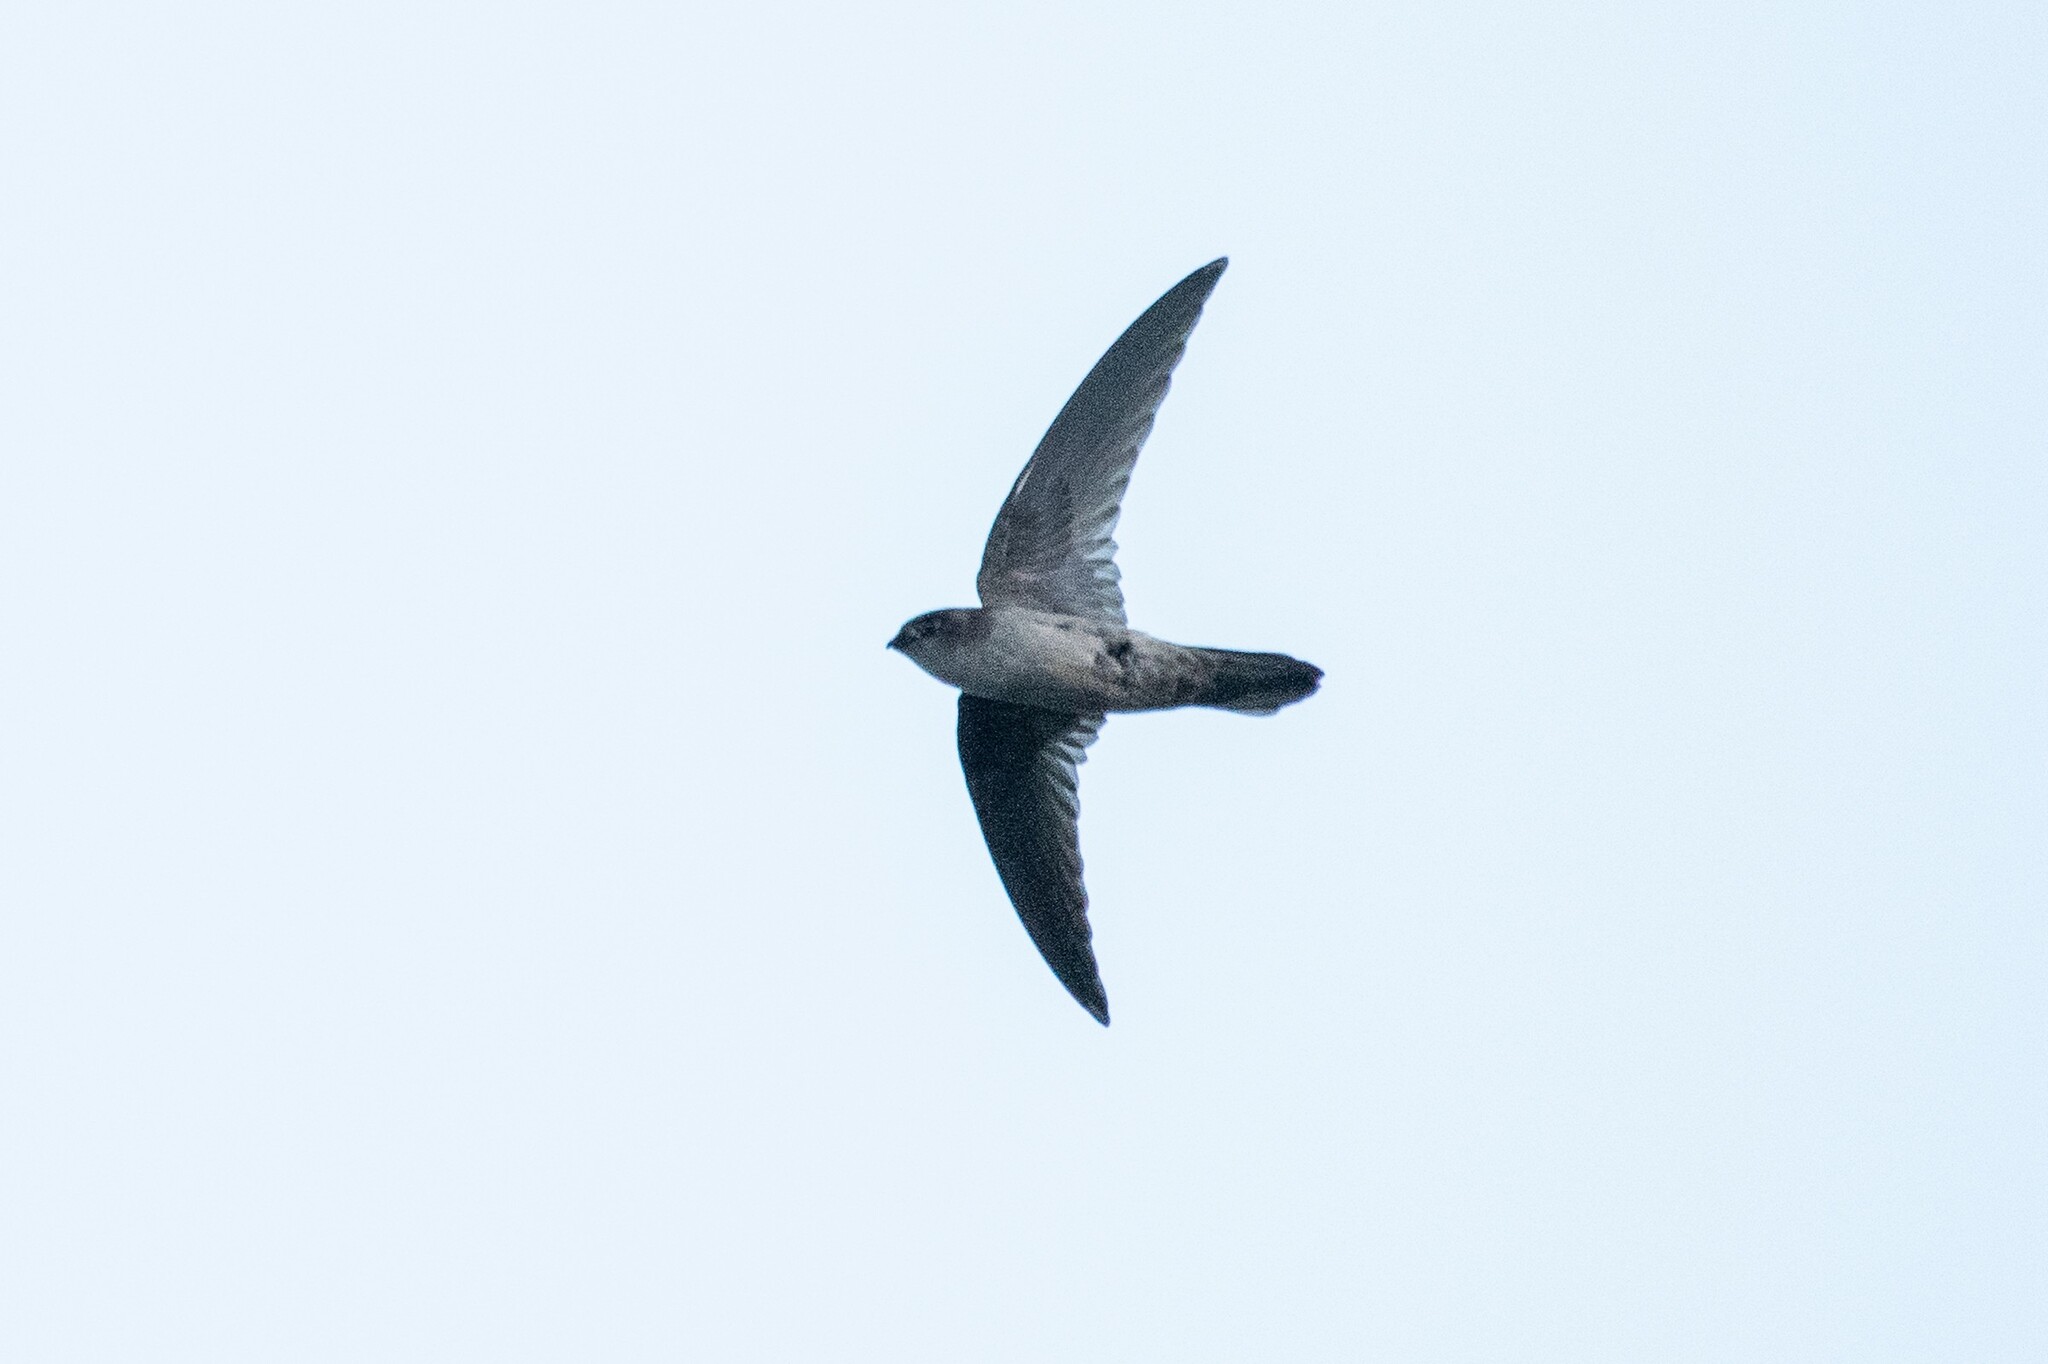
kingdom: Animalia
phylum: Chordata
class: Aves
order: Apodiformes
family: Apodidae
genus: Aerodramus
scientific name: Aerodramus terraereginae
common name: Australian swiftlet
